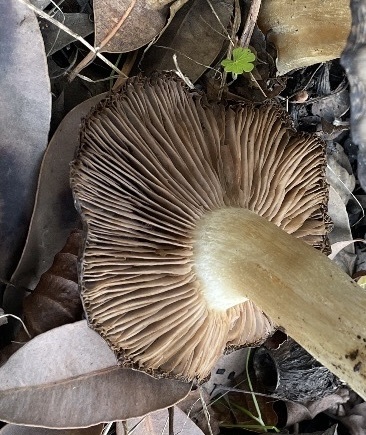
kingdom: Fungi
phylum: Basidiomycota
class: Agaricomycetes
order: Agaricales
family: Entolomataceae
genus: Entoloma
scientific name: Entoloma ferruginans
